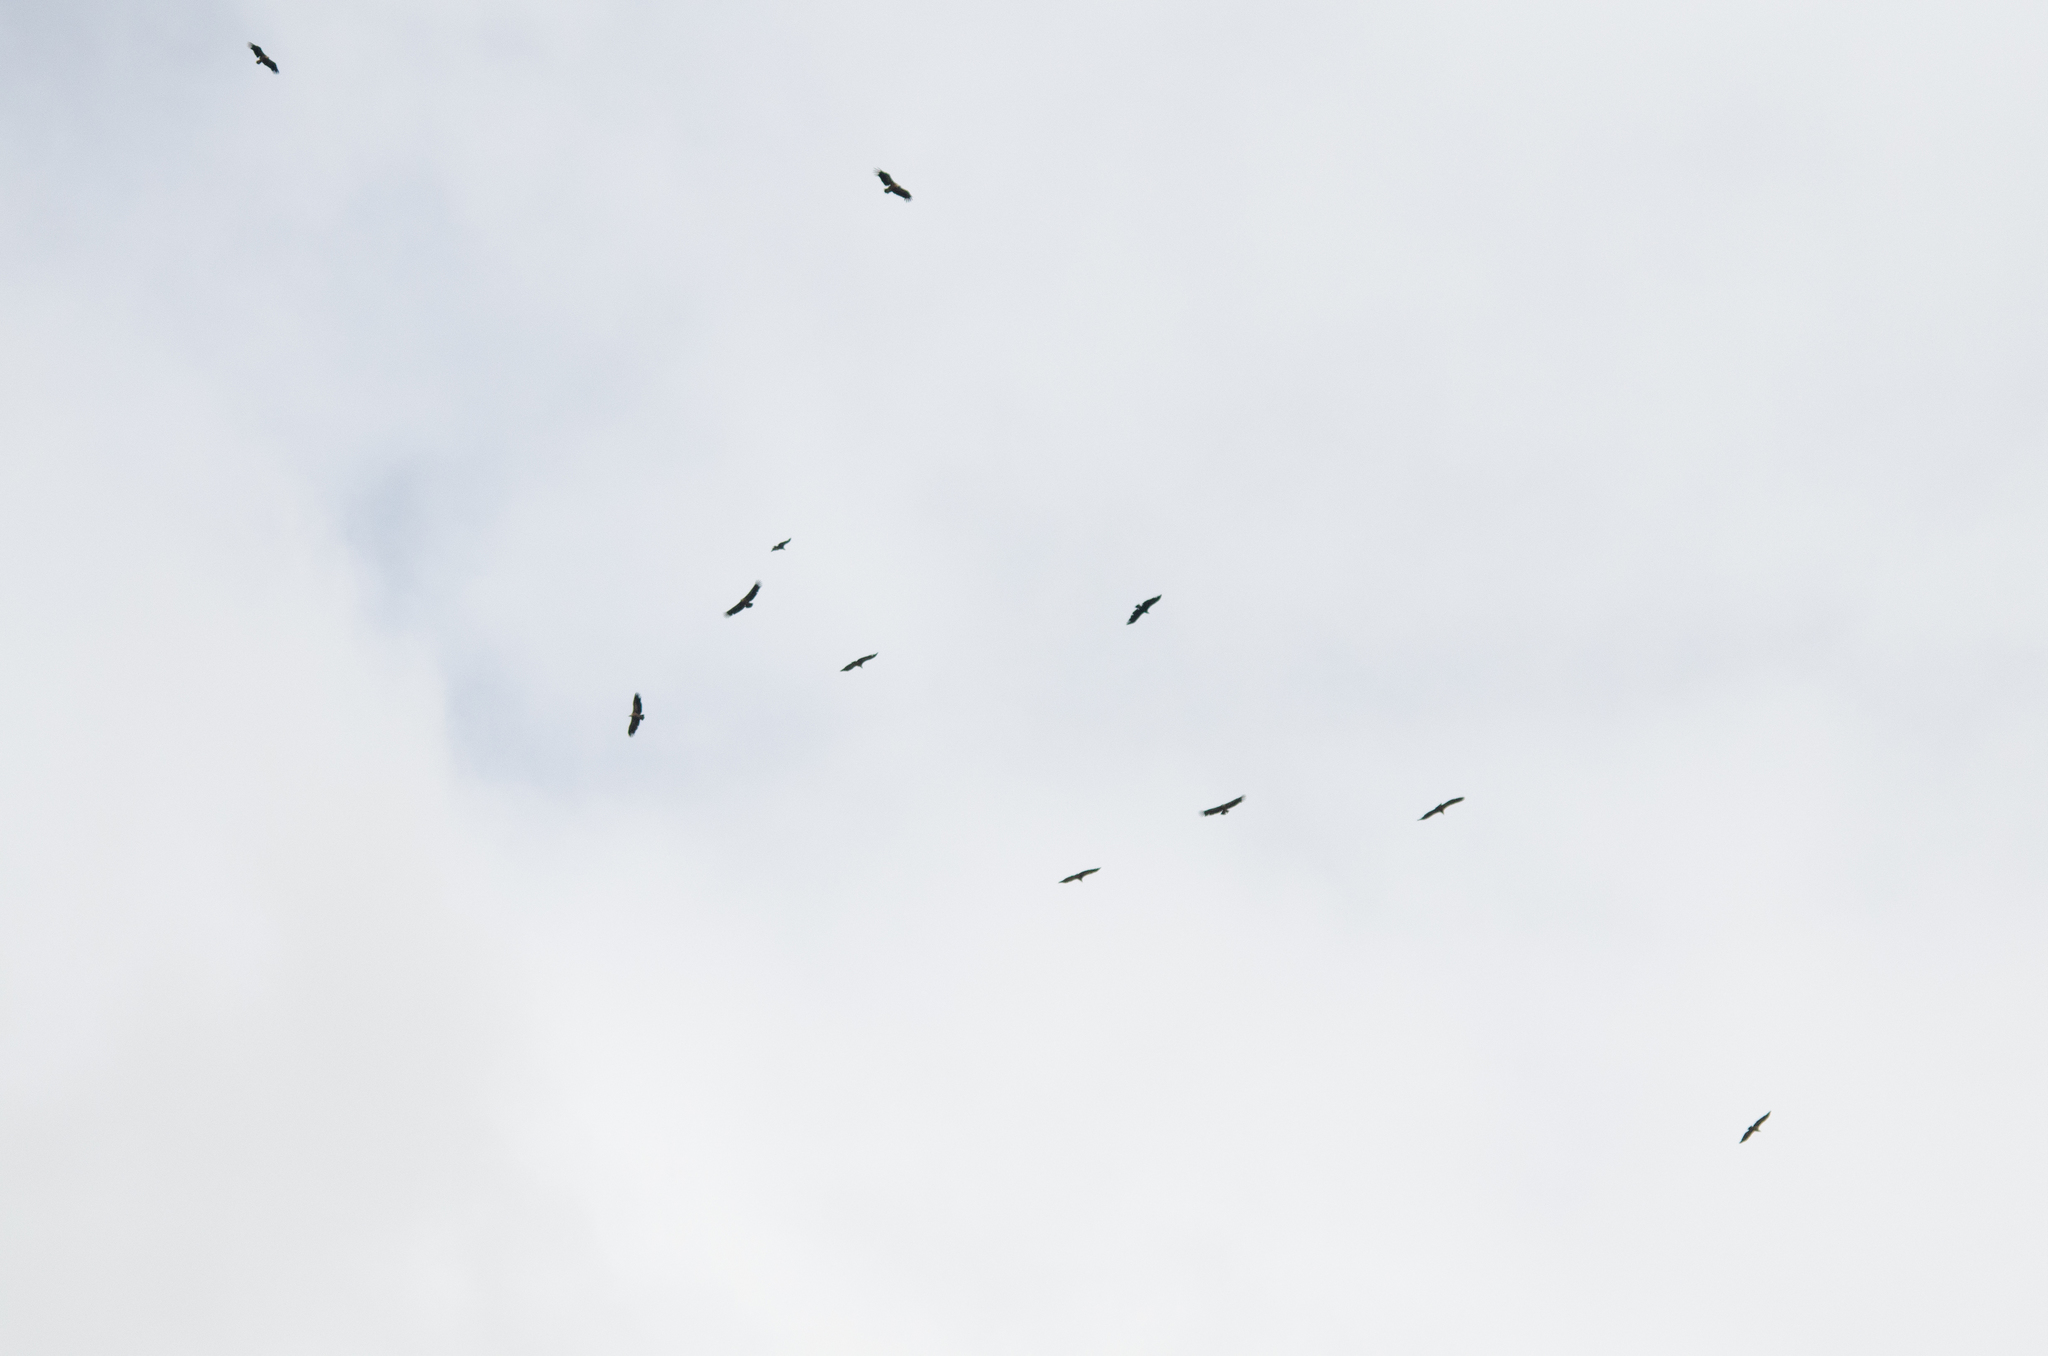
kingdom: Animalia
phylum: Chordata
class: Aves
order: Accipitriformes
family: Accipitridae
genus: Gyps
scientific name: Gyps fulvus
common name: Griffon vulture
